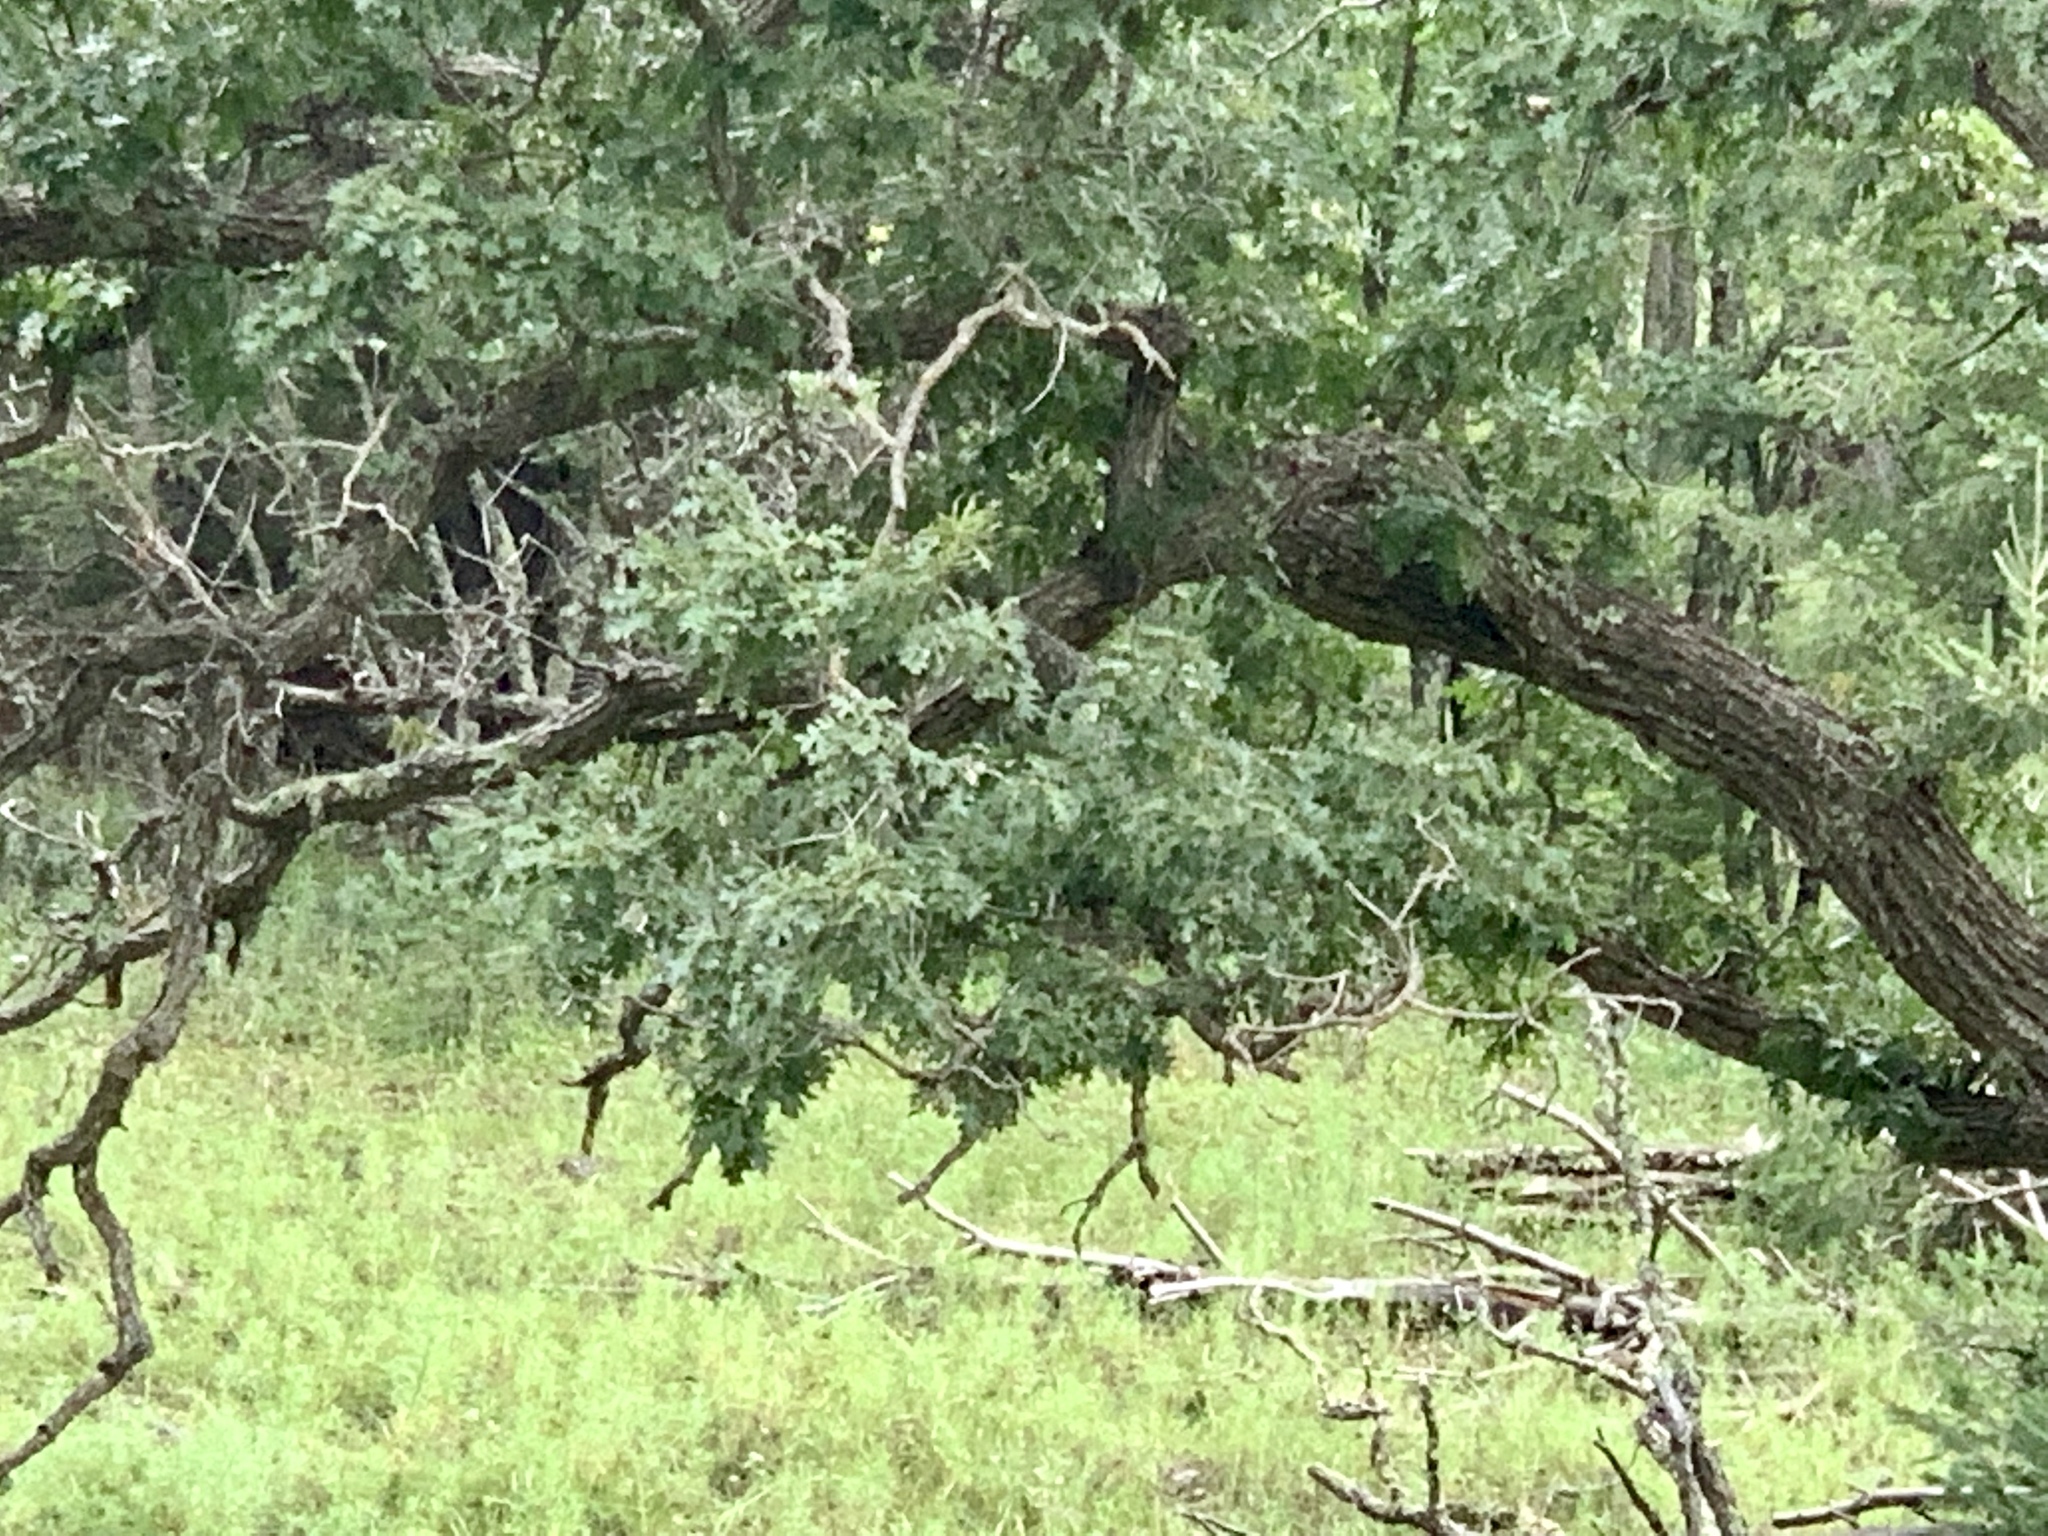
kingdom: Plantae
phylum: Tracheophyta
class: Magnoliopsida
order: Fagales
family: Fagaceae
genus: Quercus
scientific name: Quercus gambelii
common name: Gambel oak
